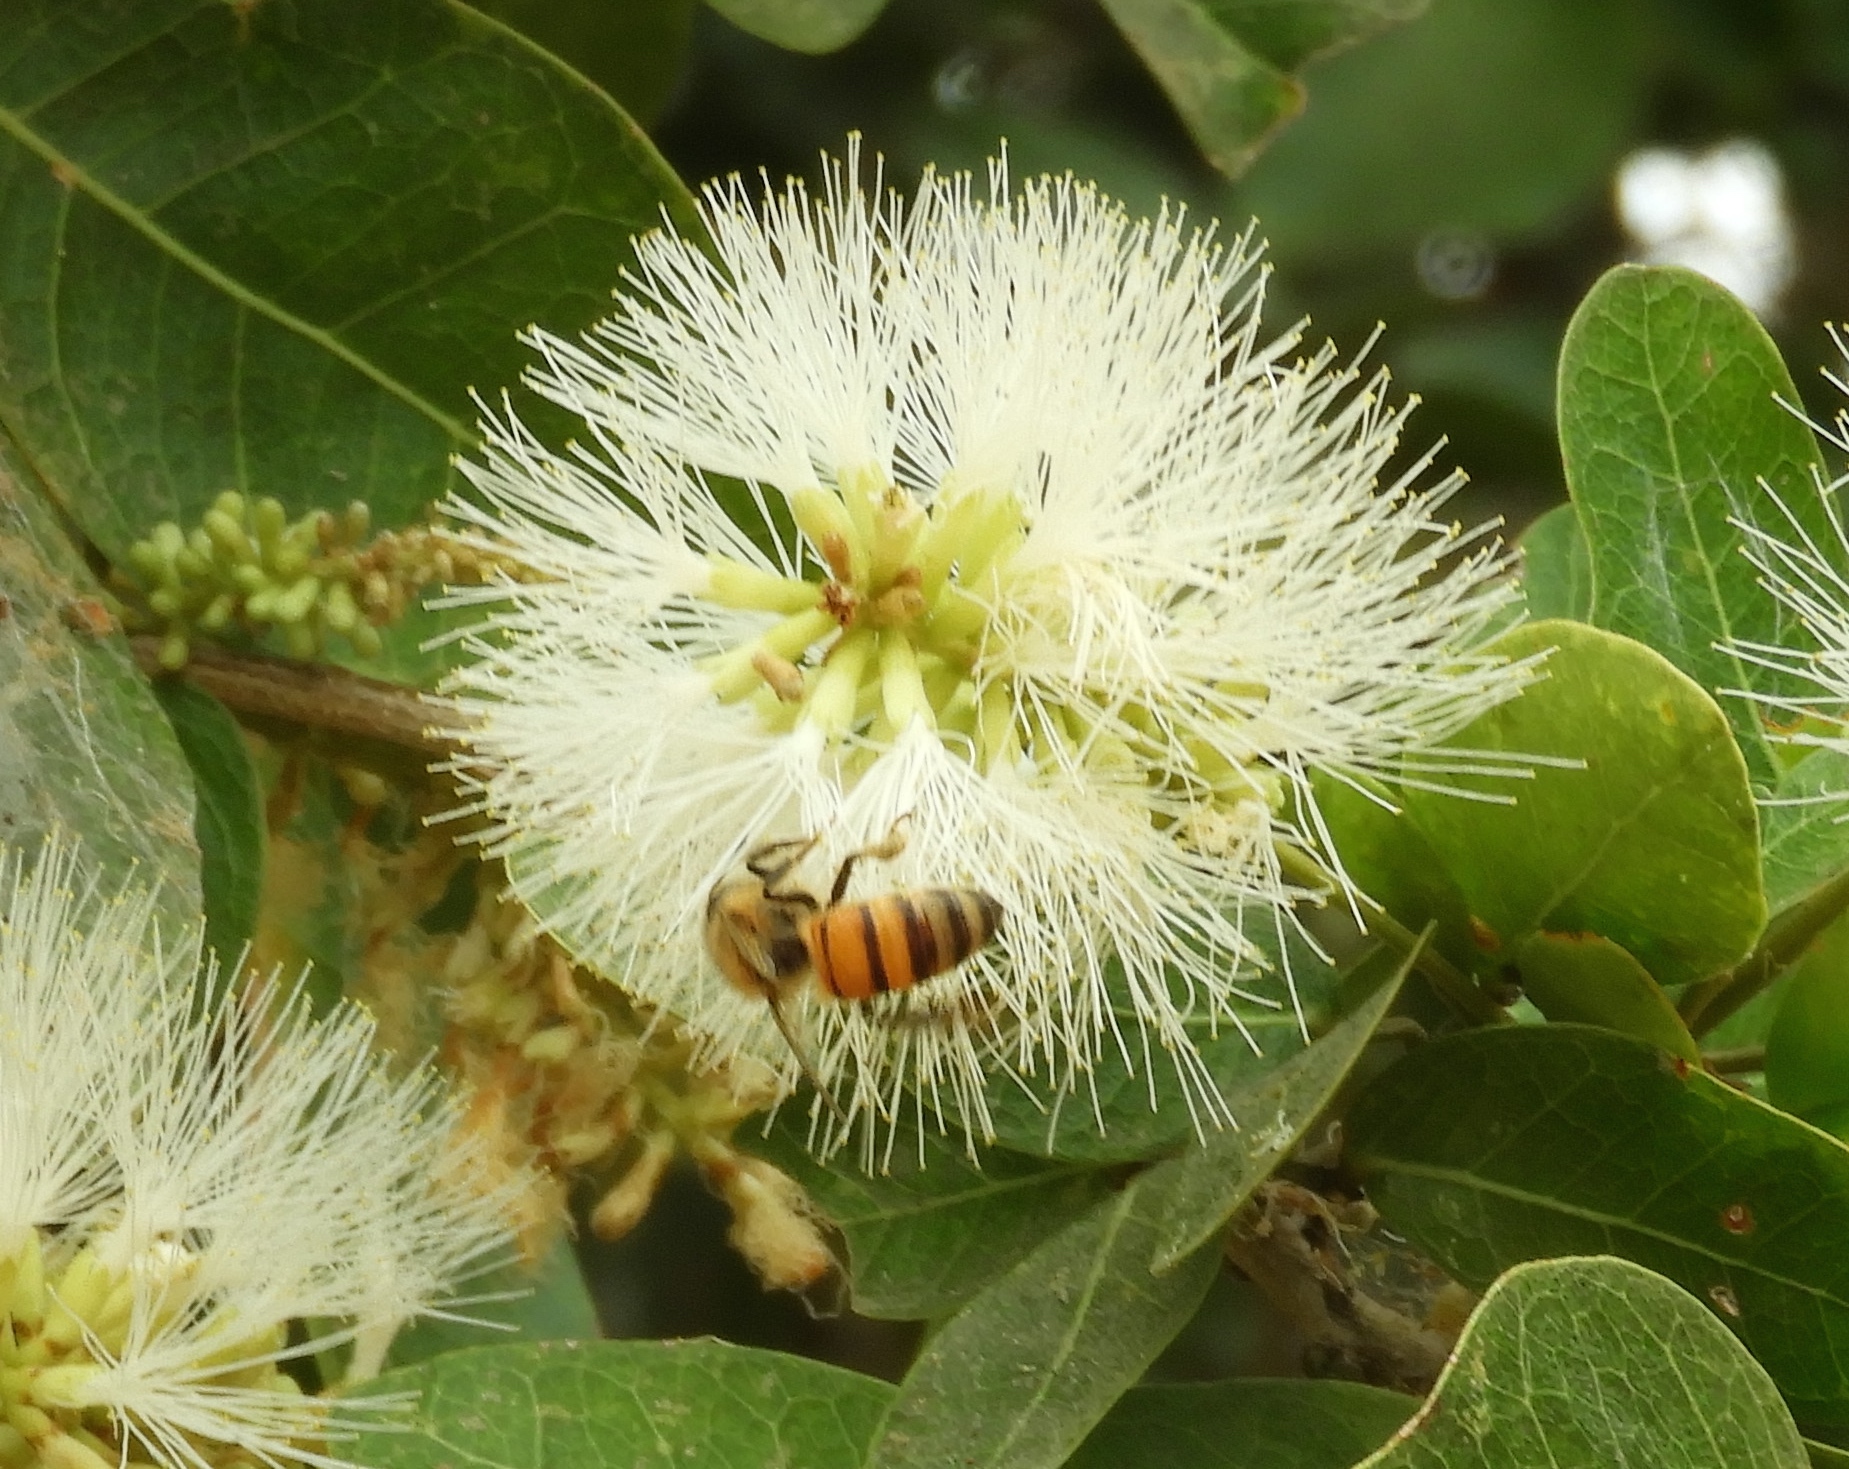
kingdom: Animalia
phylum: Arthropoda
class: Insecta
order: Hymenoptera
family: Apidae
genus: Apis
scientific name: Apis mellifera
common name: Honey bee
